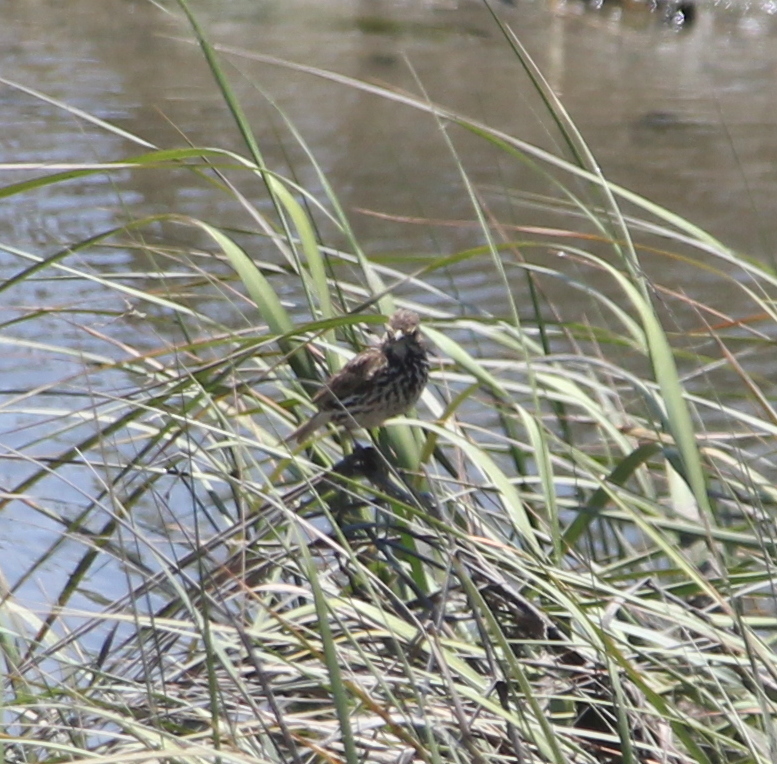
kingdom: Animalia
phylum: Chordata
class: Aves
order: Passeriformes
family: Passerellidae
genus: Passerculus
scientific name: Passerculus sandwichensis
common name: Savannah sparrow
